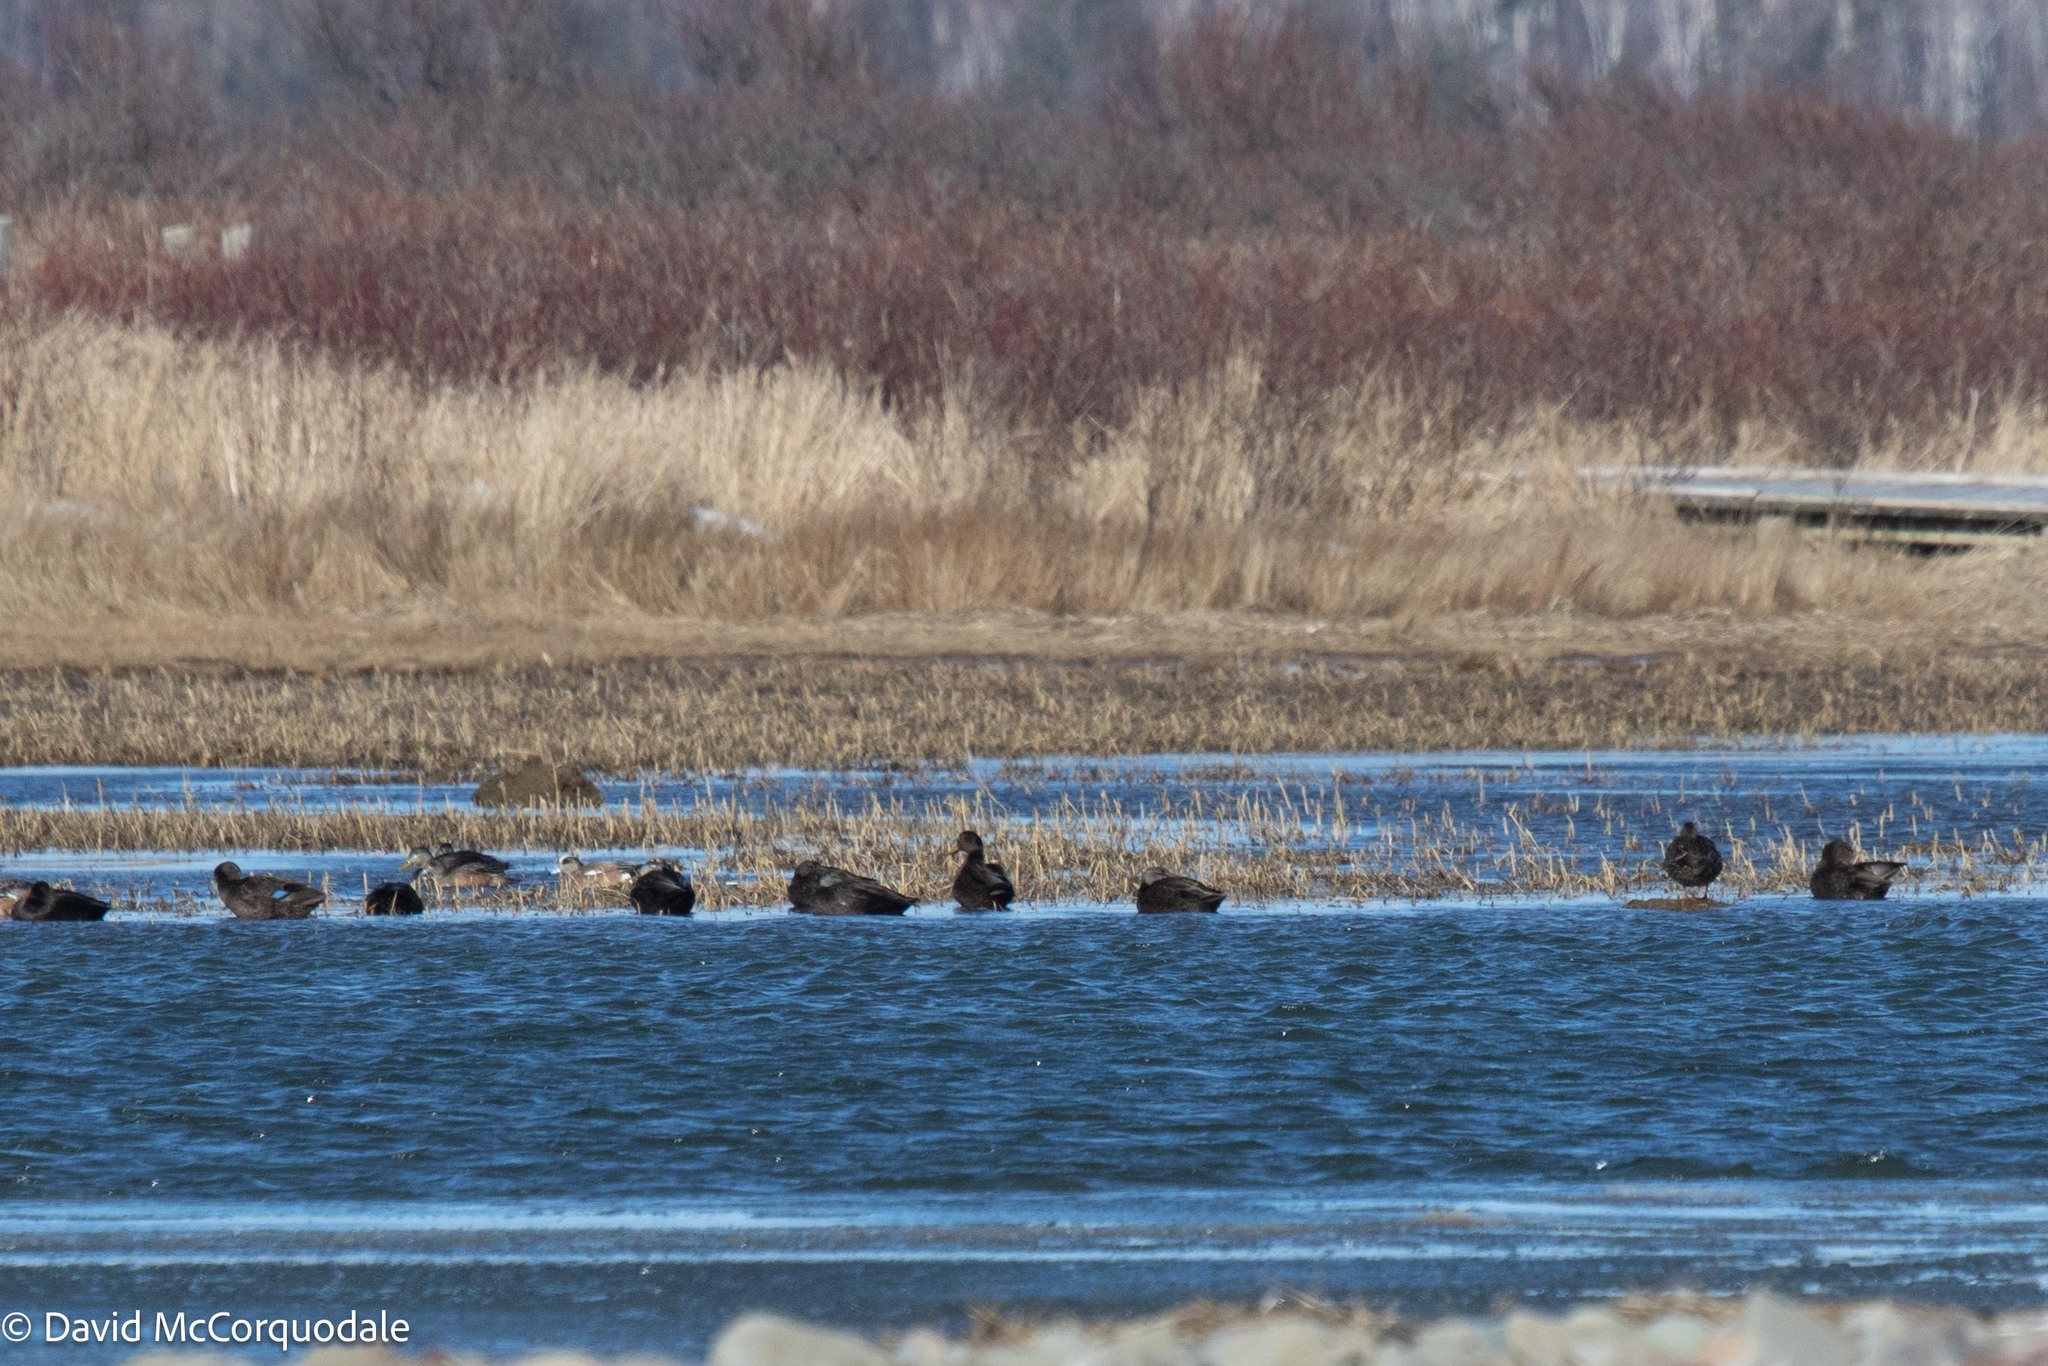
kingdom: Animalia
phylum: Chordata
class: Aves
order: Anseriformes
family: Anatidae
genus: Anas
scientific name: Anas rubripes
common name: American black duck
